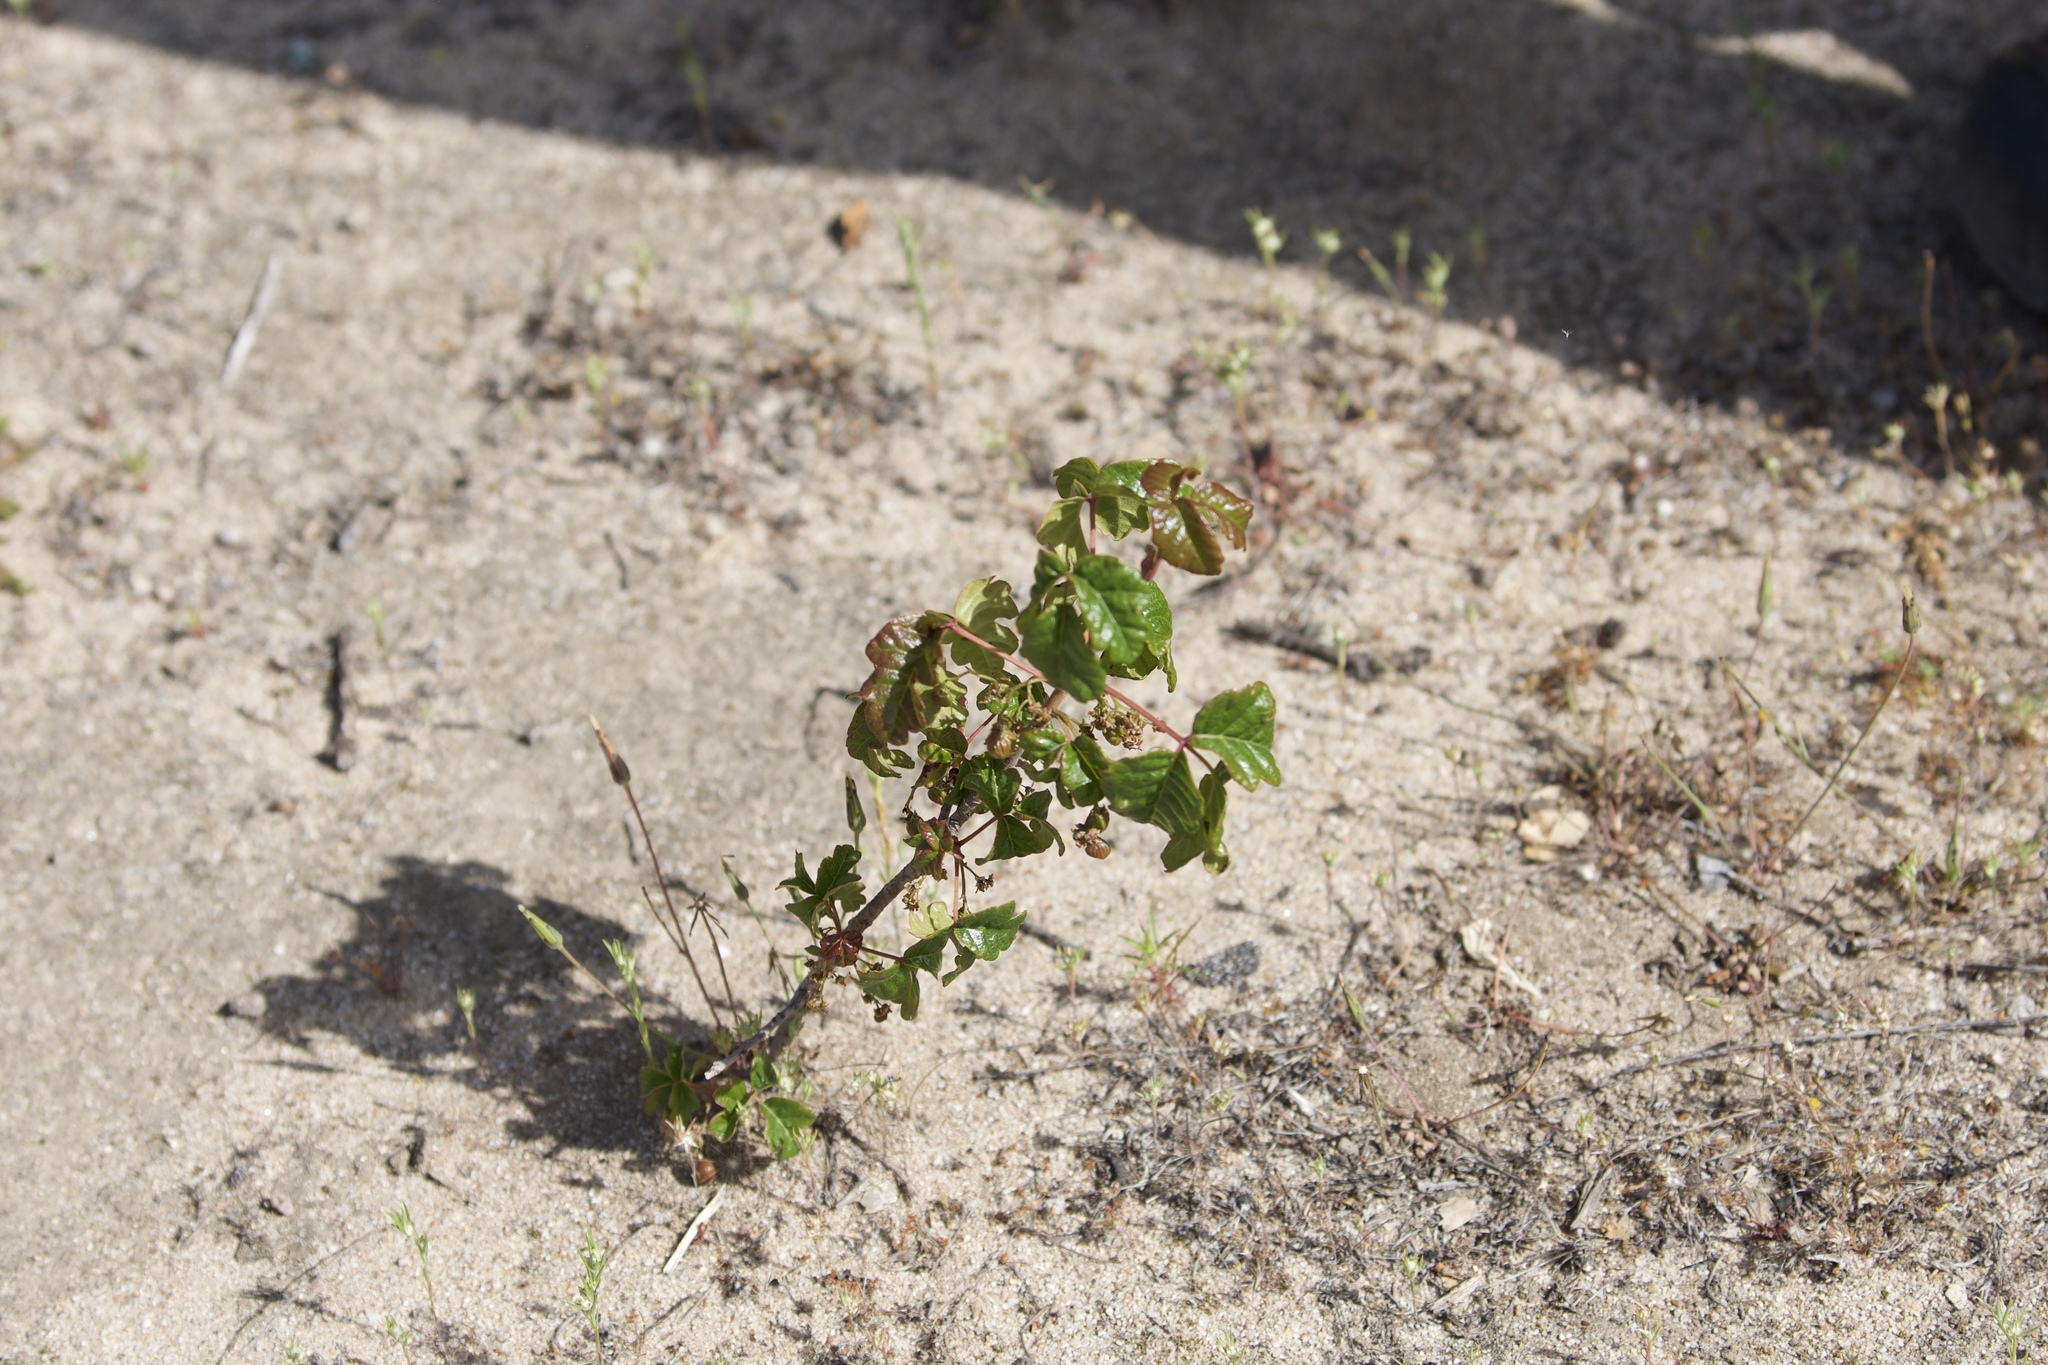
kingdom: Plantae
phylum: Tracheophyta
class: Magnoliopsida
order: Sapindales
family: Anacardiaceae
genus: Toxicodendron
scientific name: Toxicodendron diversilobum
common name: Pacific poison-oak
